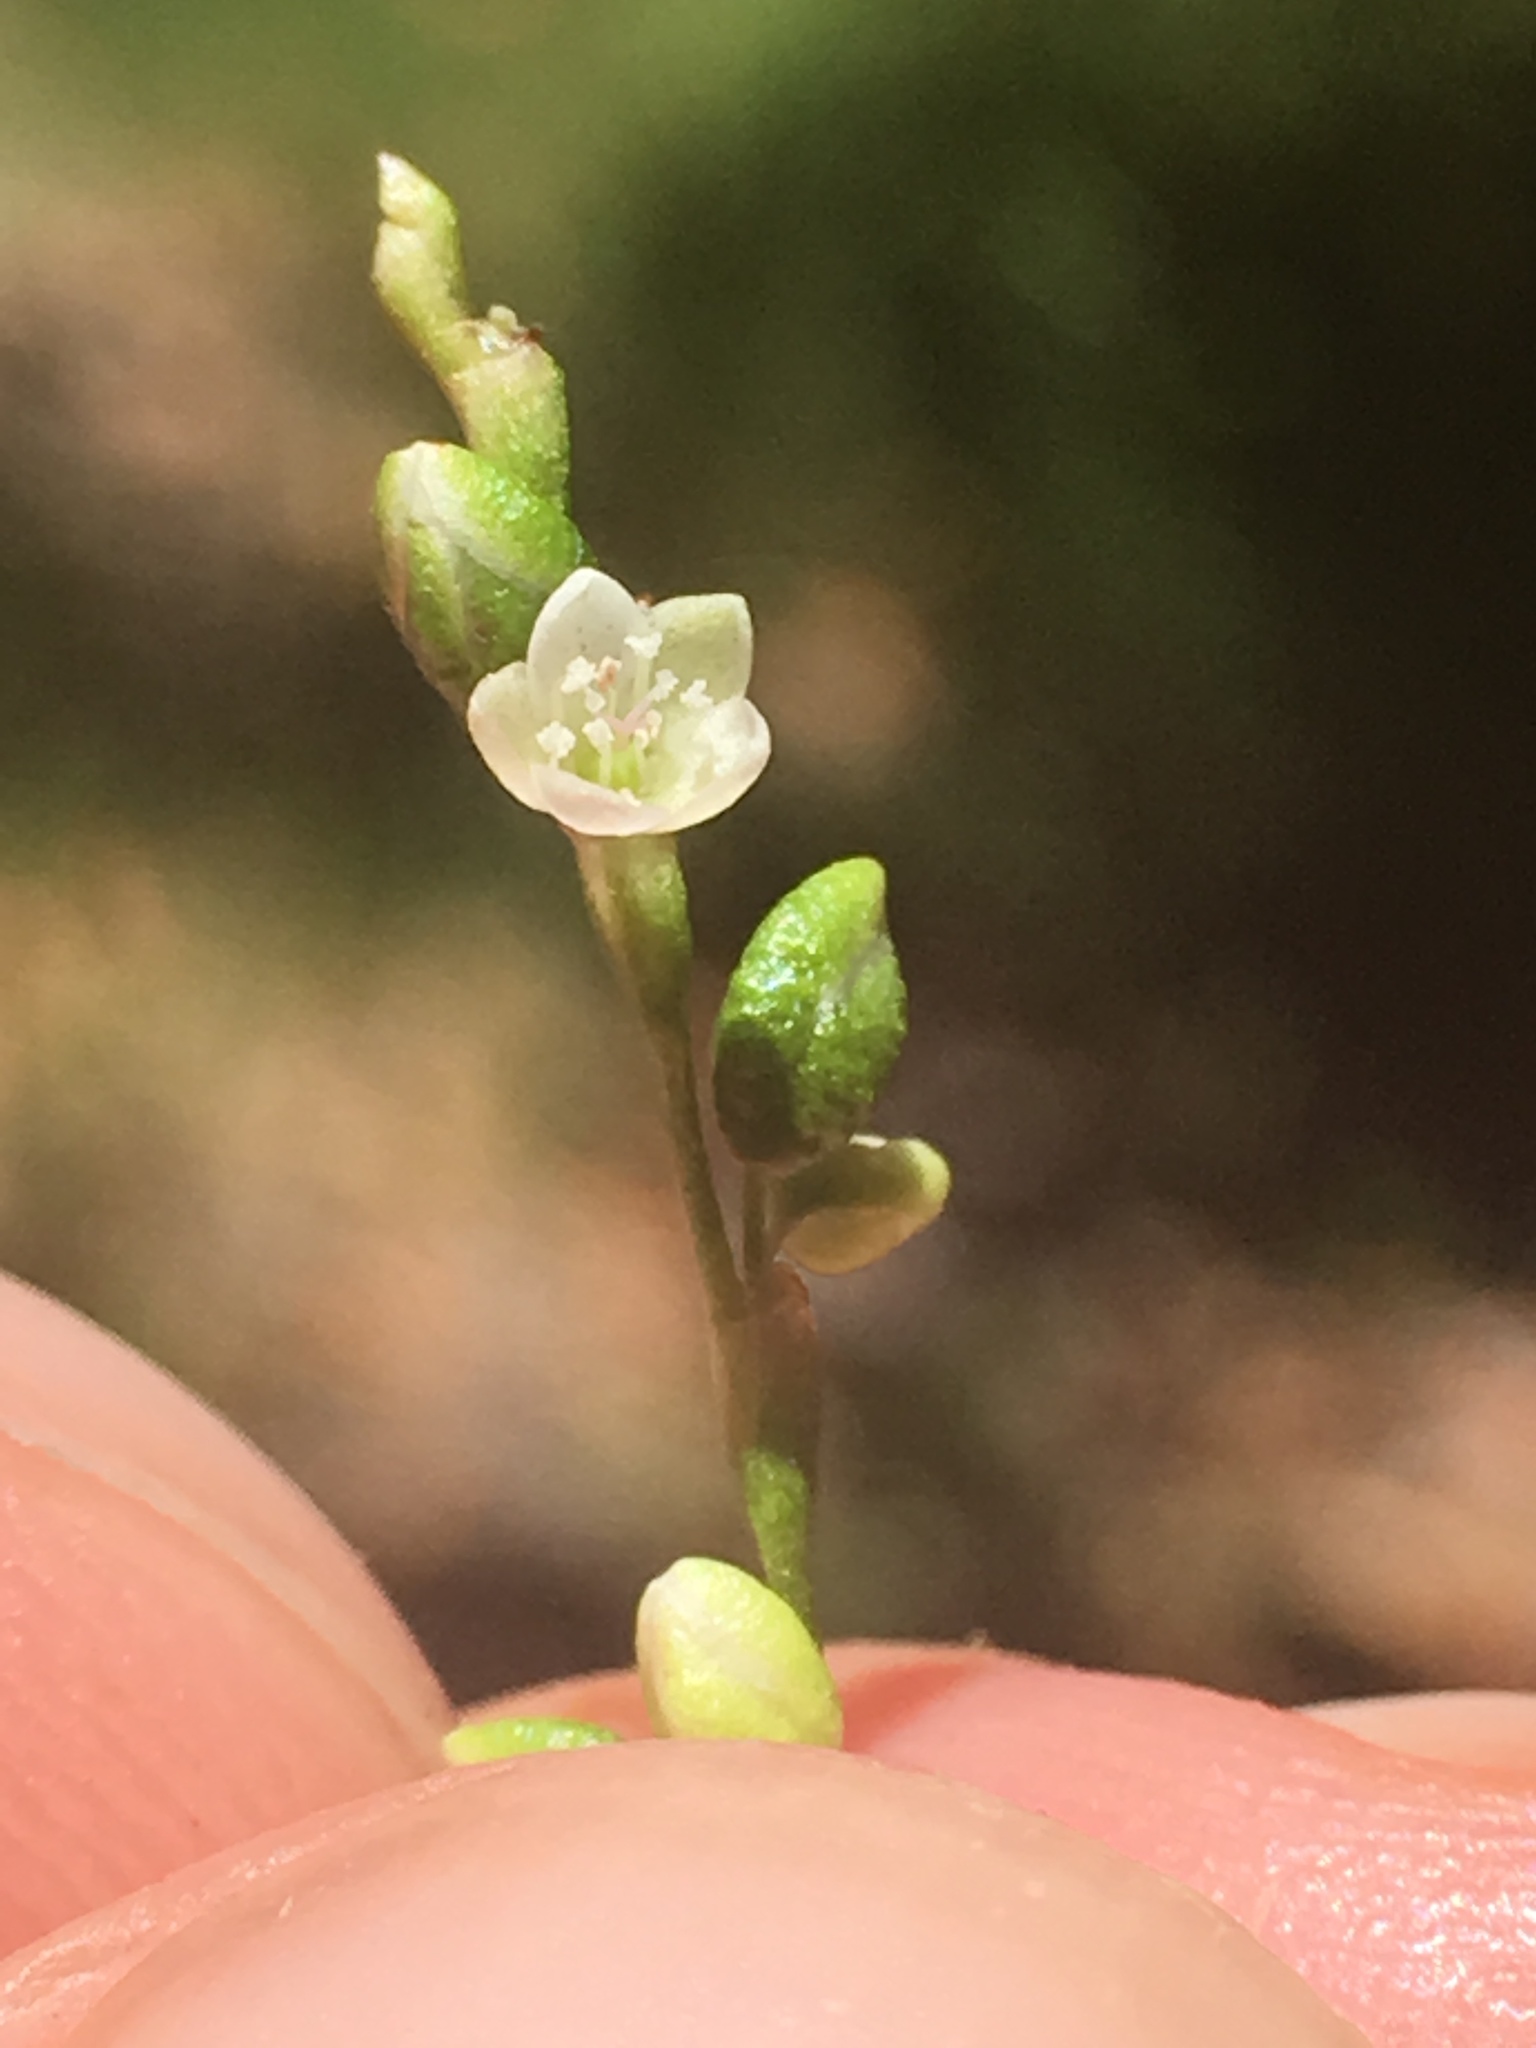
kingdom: Plantae
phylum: Tracheophyta
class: Magnoliopsida
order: Caryophyllales
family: Polygonaceae
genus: Persicaria
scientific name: Persicaria punctata
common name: Dotted smartweed
